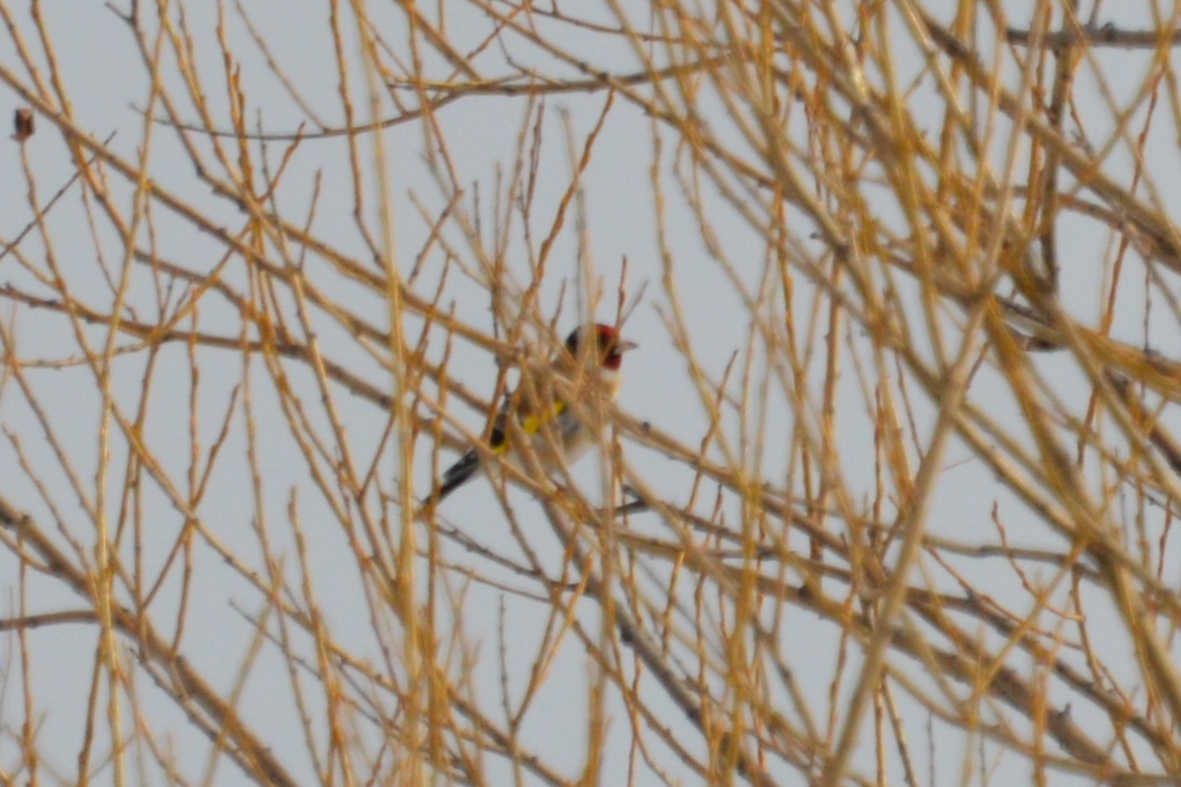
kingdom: Animalia
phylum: Chordata
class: Aves
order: Passeriformes
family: Fringillidae
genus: Carduelis
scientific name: Carduelis carduelis
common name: European goldfinch
